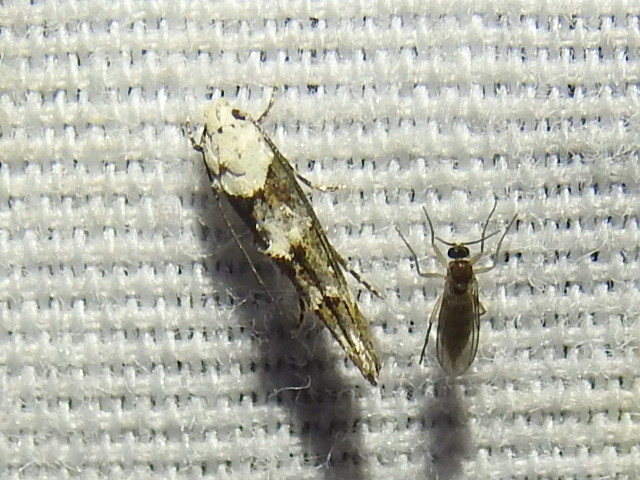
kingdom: Animalia
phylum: Arthropoda
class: Insecta
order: Lepidoptera
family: Momphidae
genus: Mompha
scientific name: Mompha albocapitella
